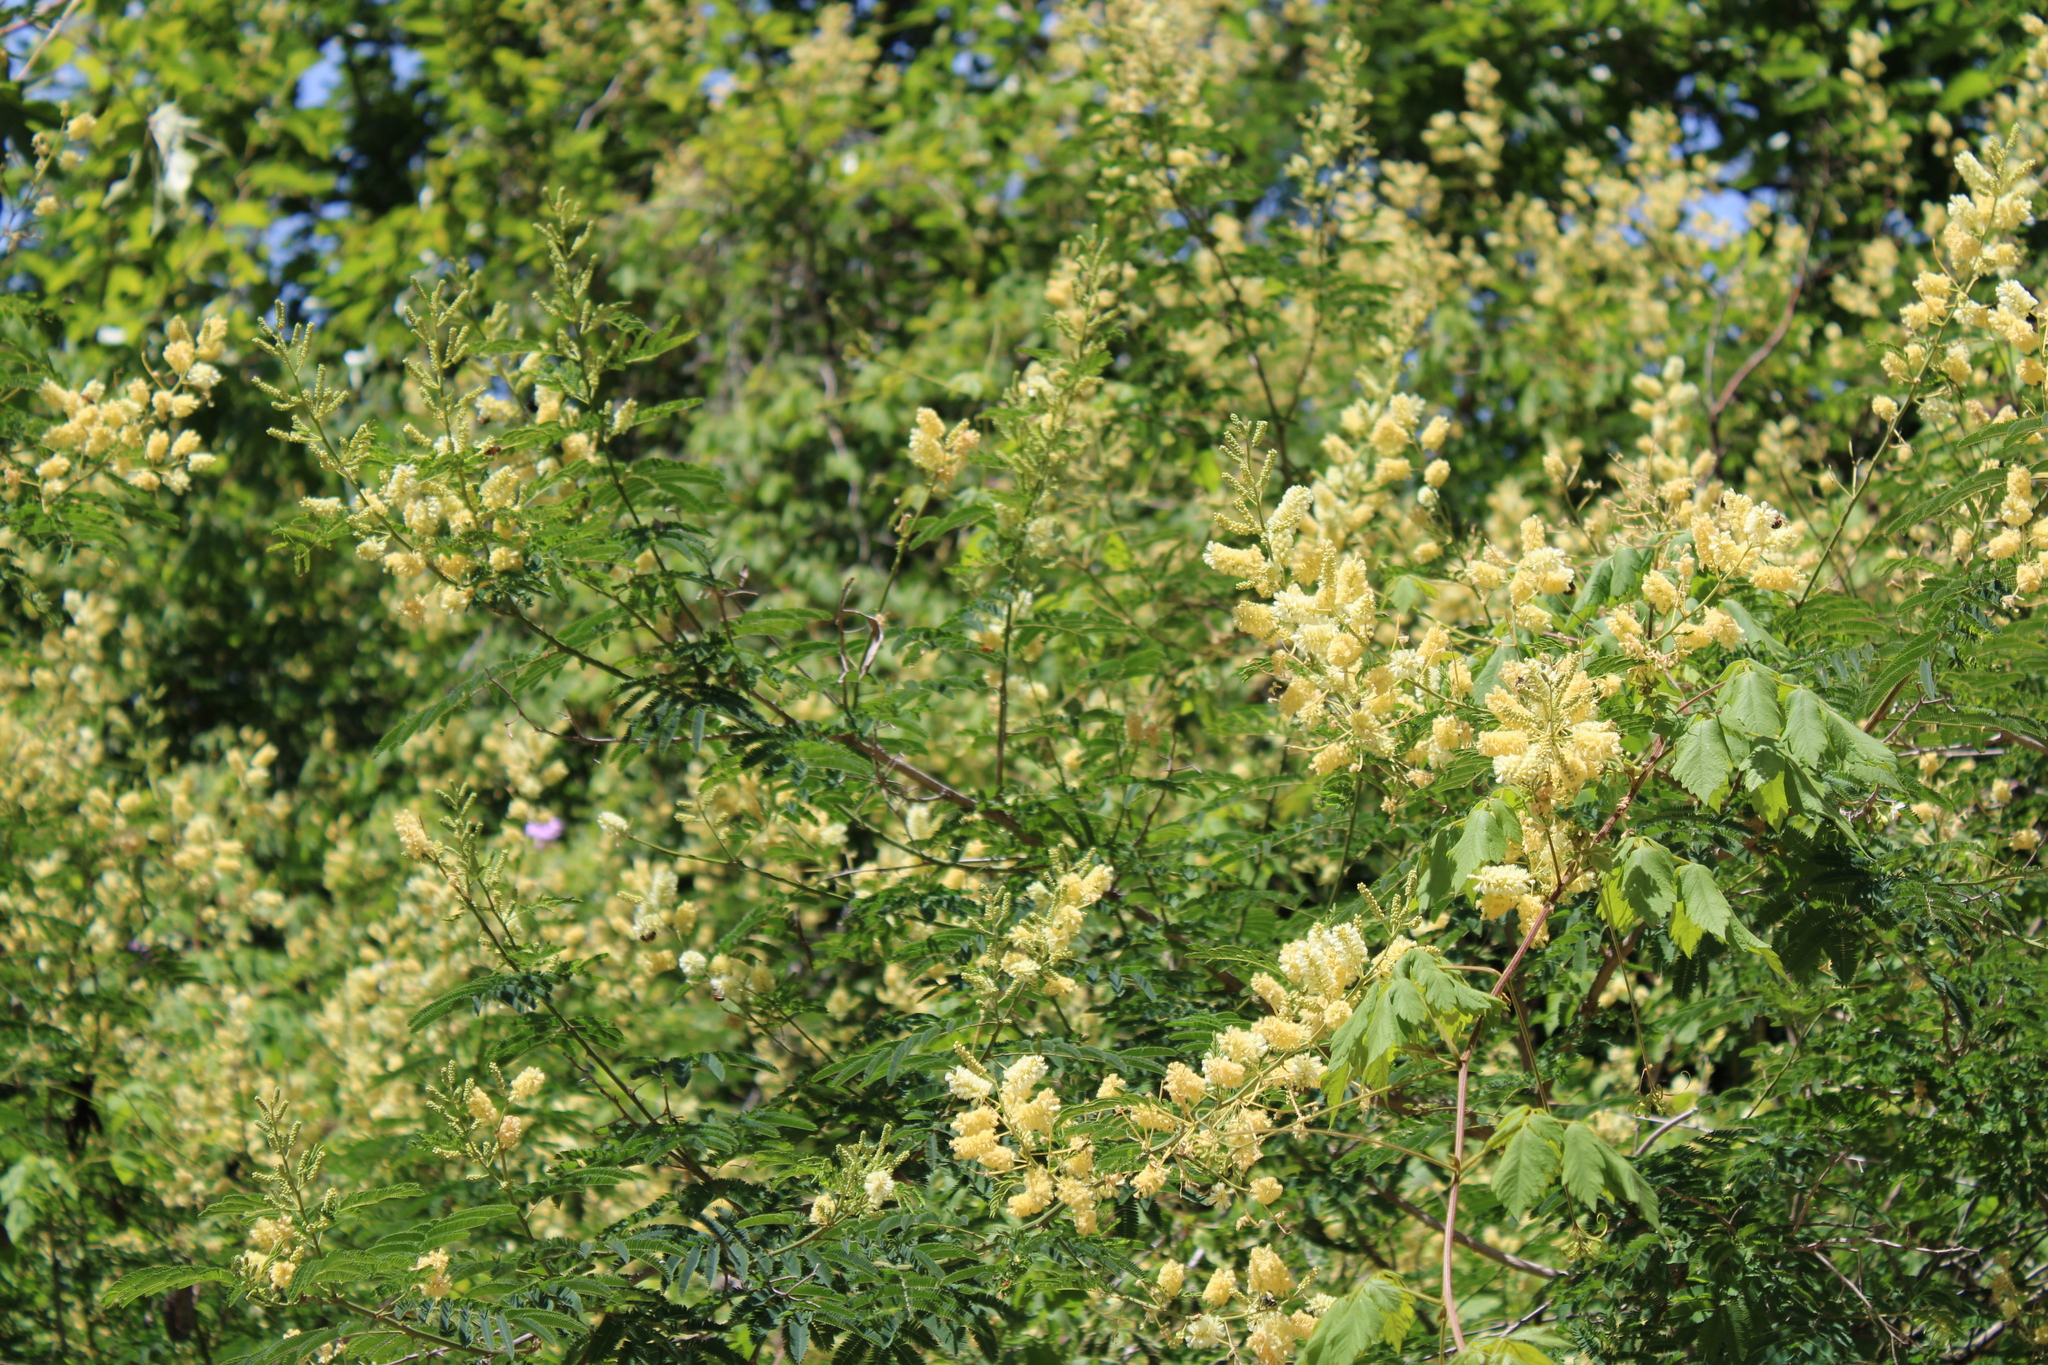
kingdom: Plantae
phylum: Tracheophyta
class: Magnoliopsida
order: Fabales
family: Fabaceae
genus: Senegalia
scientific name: Senegalia bonariensis
